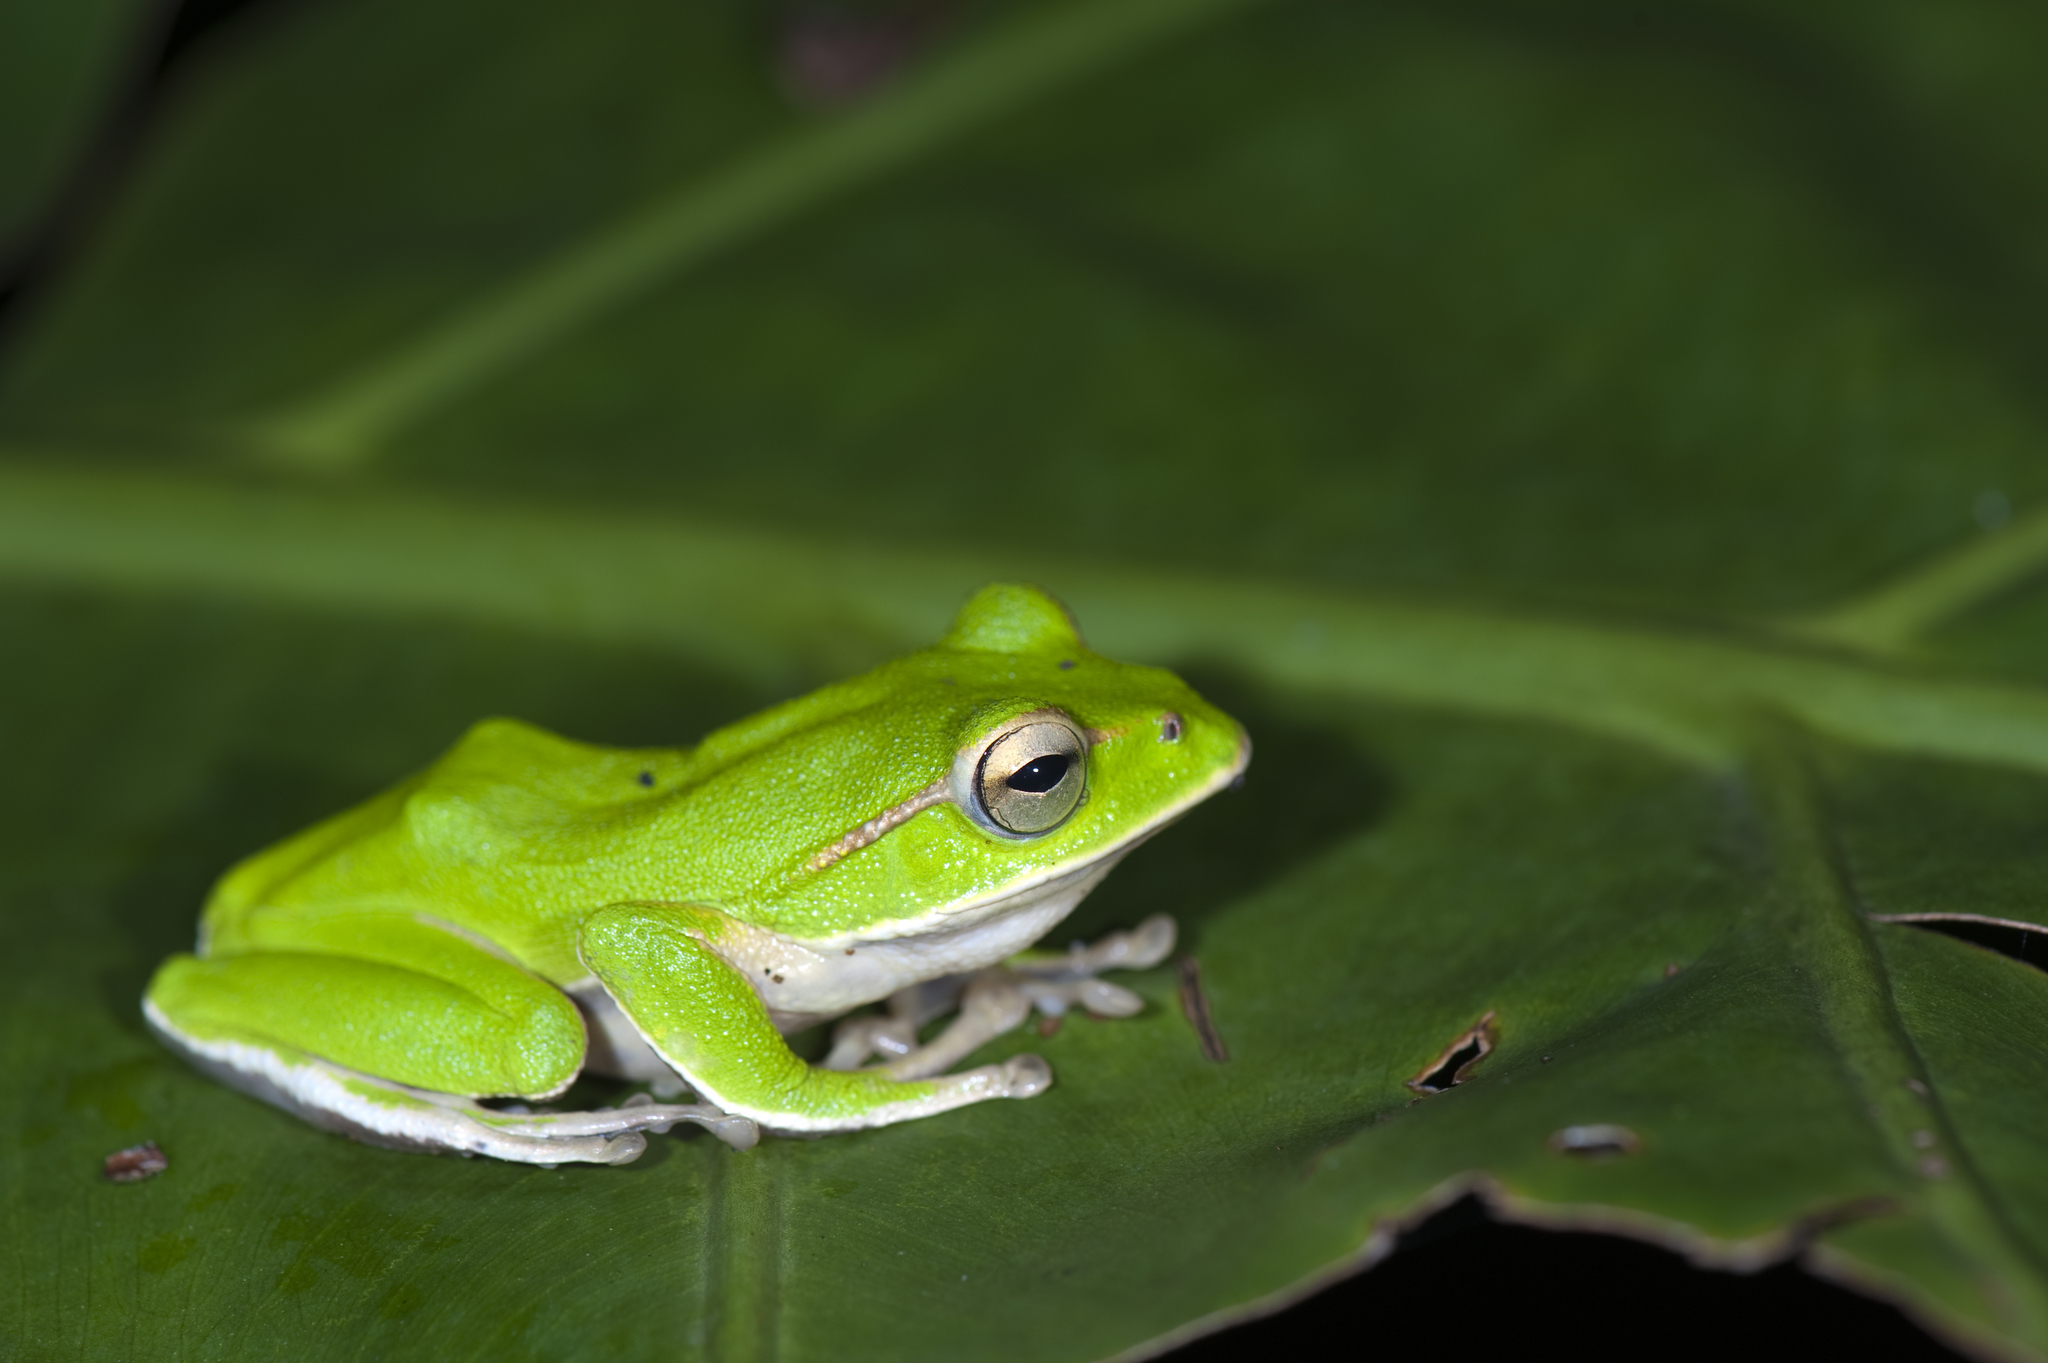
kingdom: Animalia
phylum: Chordata
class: Amphibia
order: Anura
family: Rhacophoridae
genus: Zhangixalus
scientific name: Zhangixalus prasinatus
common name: Tributary flying frog
